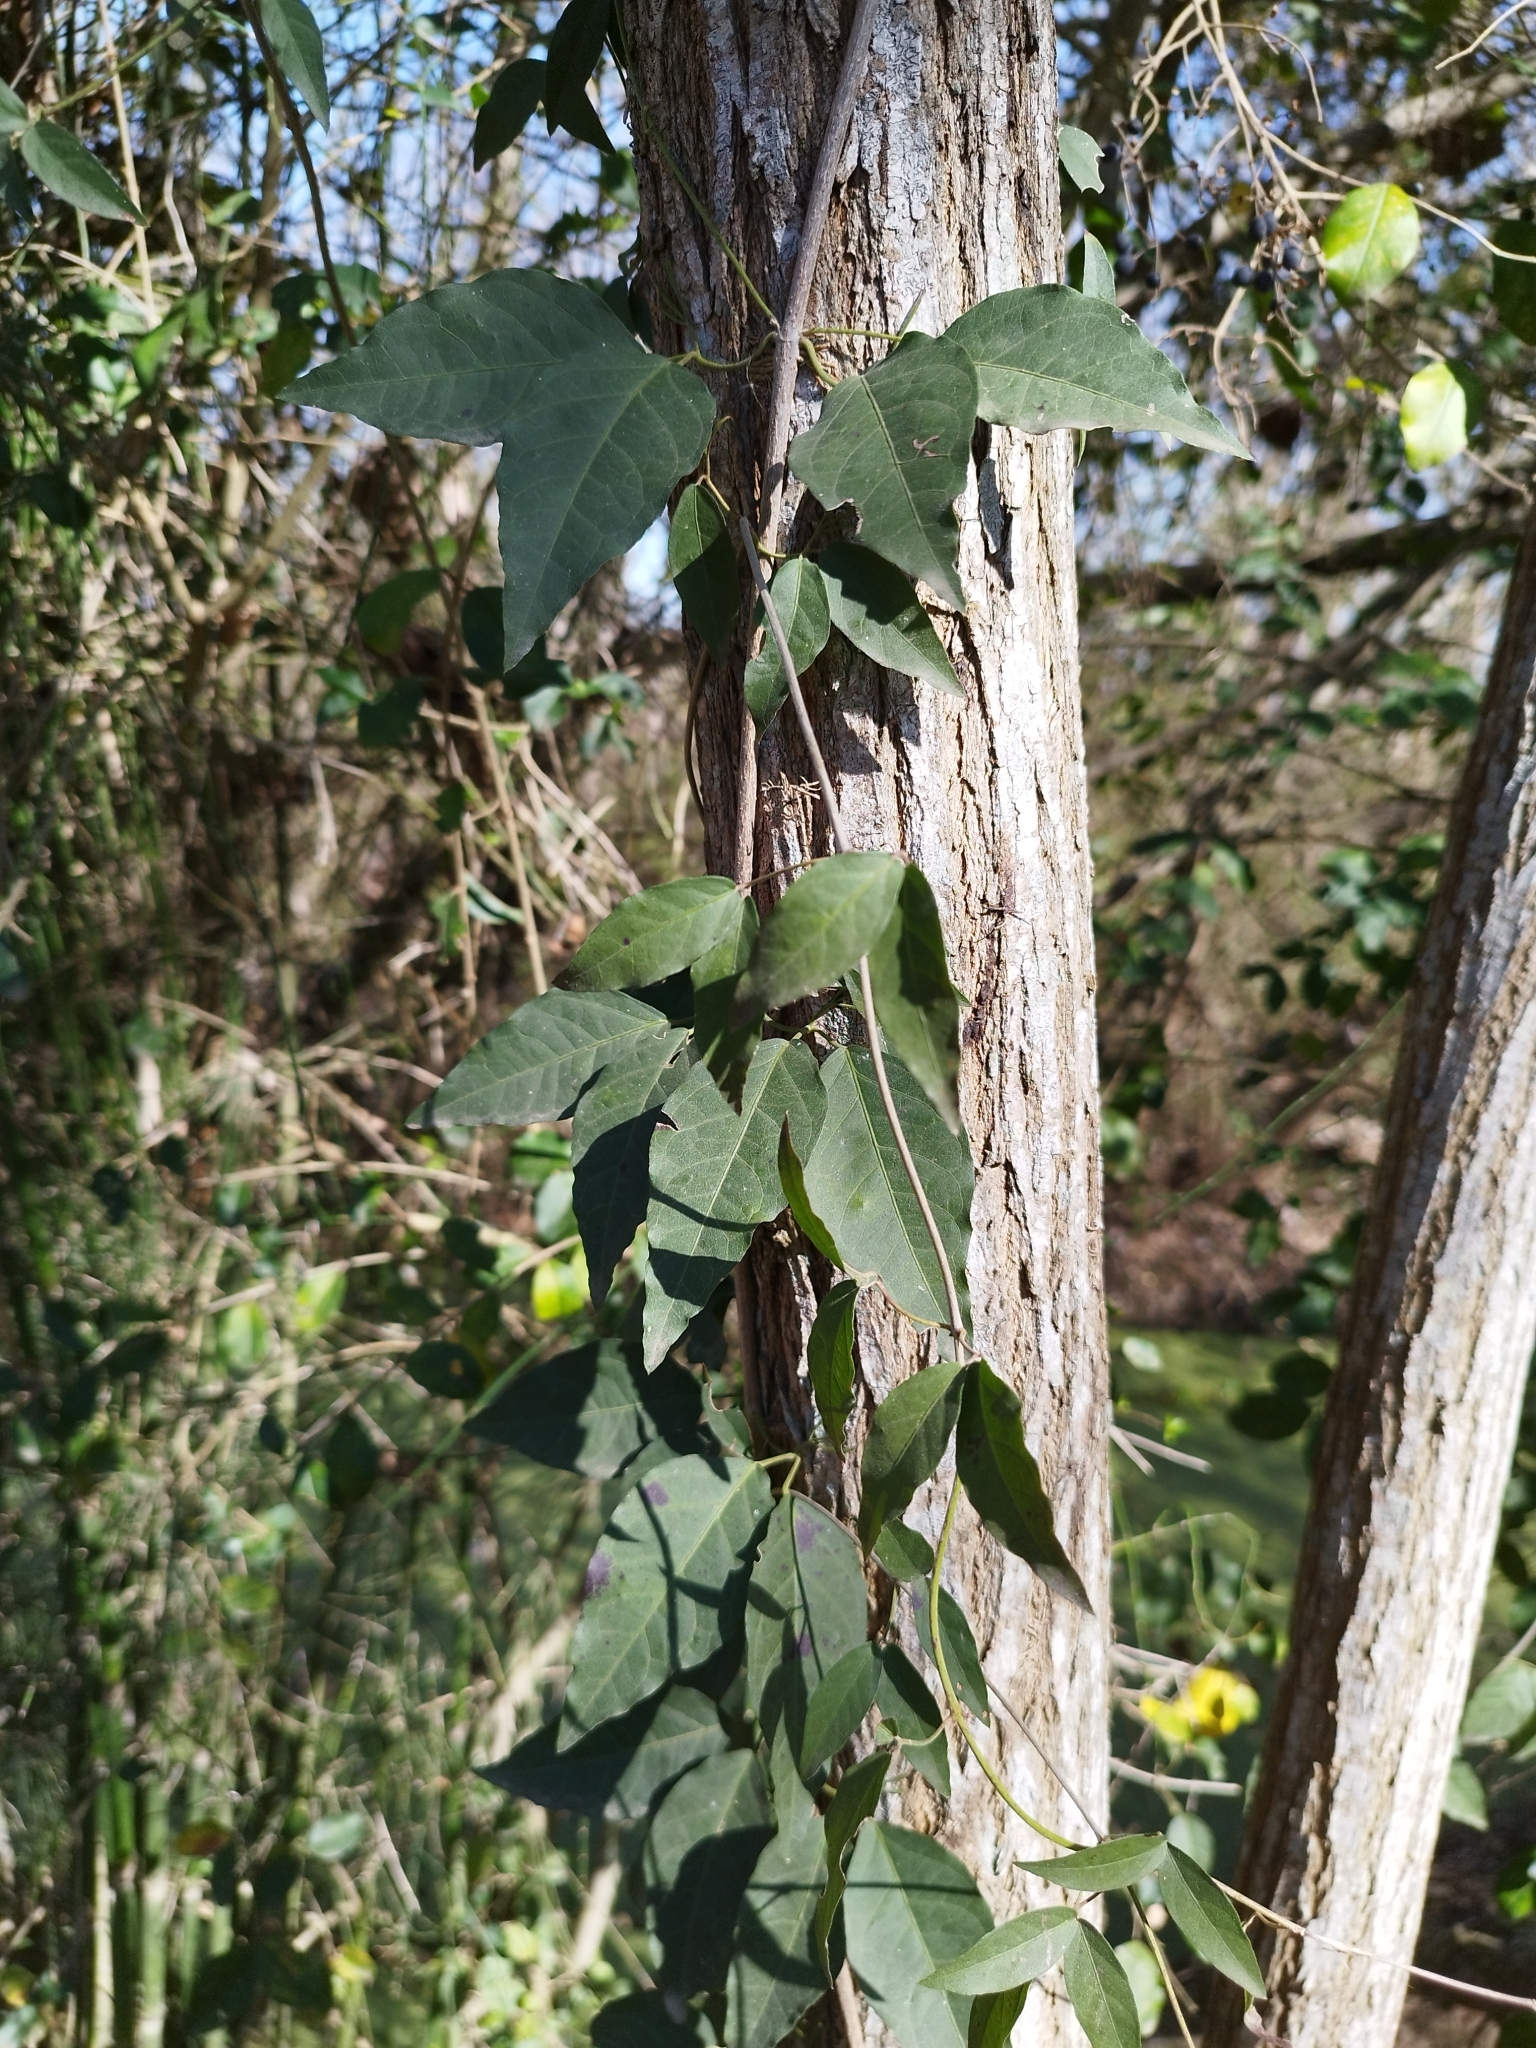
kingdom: Plantae
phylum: Tracheophyta
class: Magnoliopsida
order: Lamiales
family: Bignoniaceae
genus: Dolichandra
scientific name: Dolichandra unguis-cati
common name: Catclaw vine
